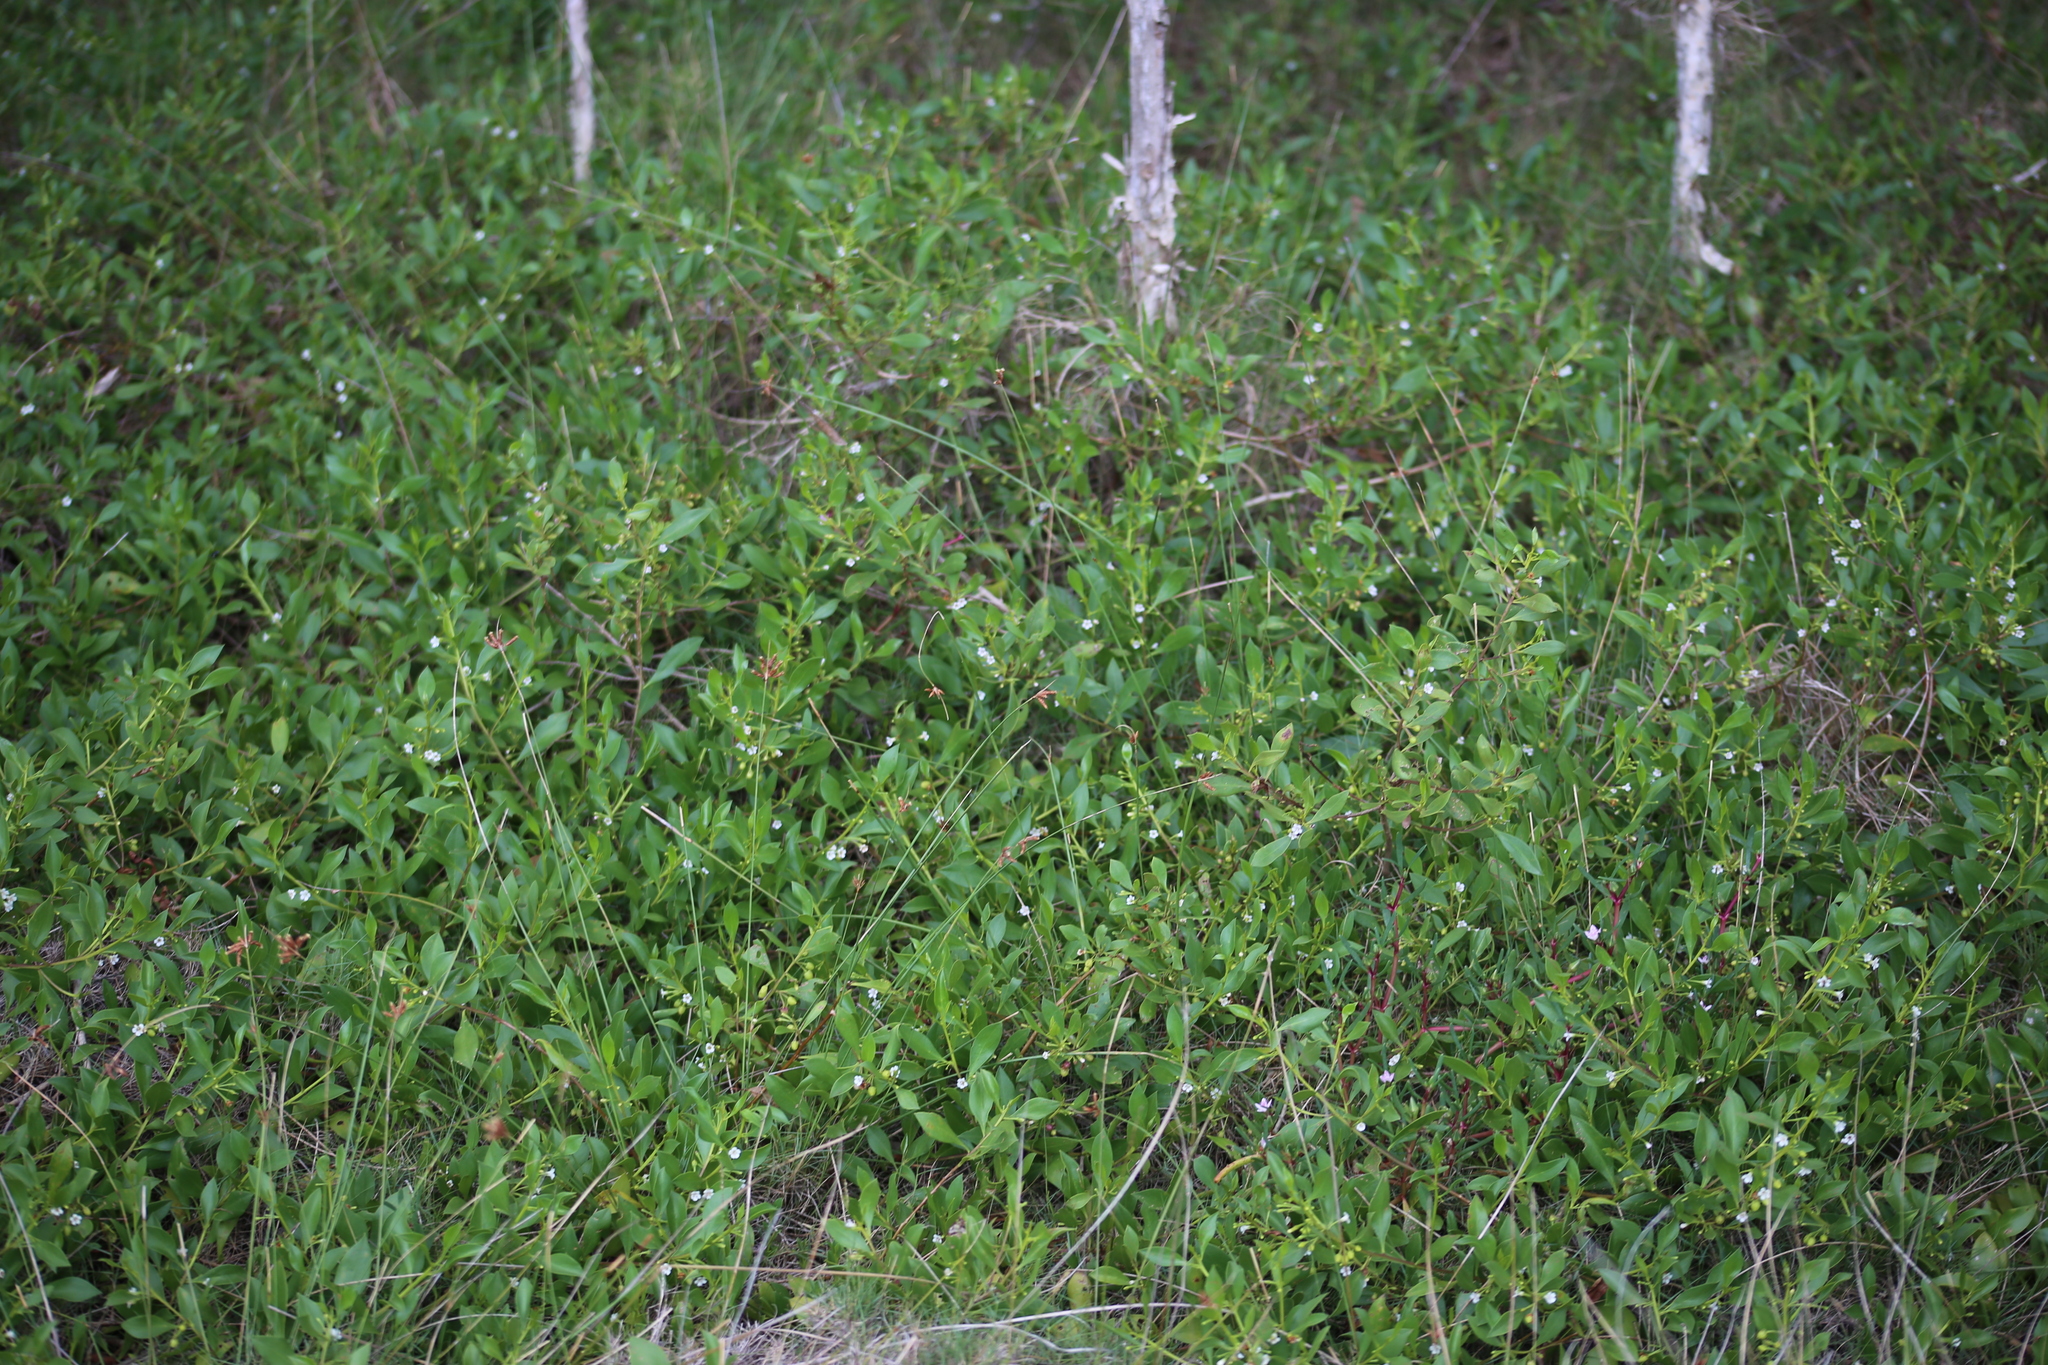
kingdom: Plantae
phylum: Tracheophyta
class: Magnoliopsida
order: Lamiales
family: Scrophulariaceae
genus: Myoporum
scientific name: Myoporum boninense
